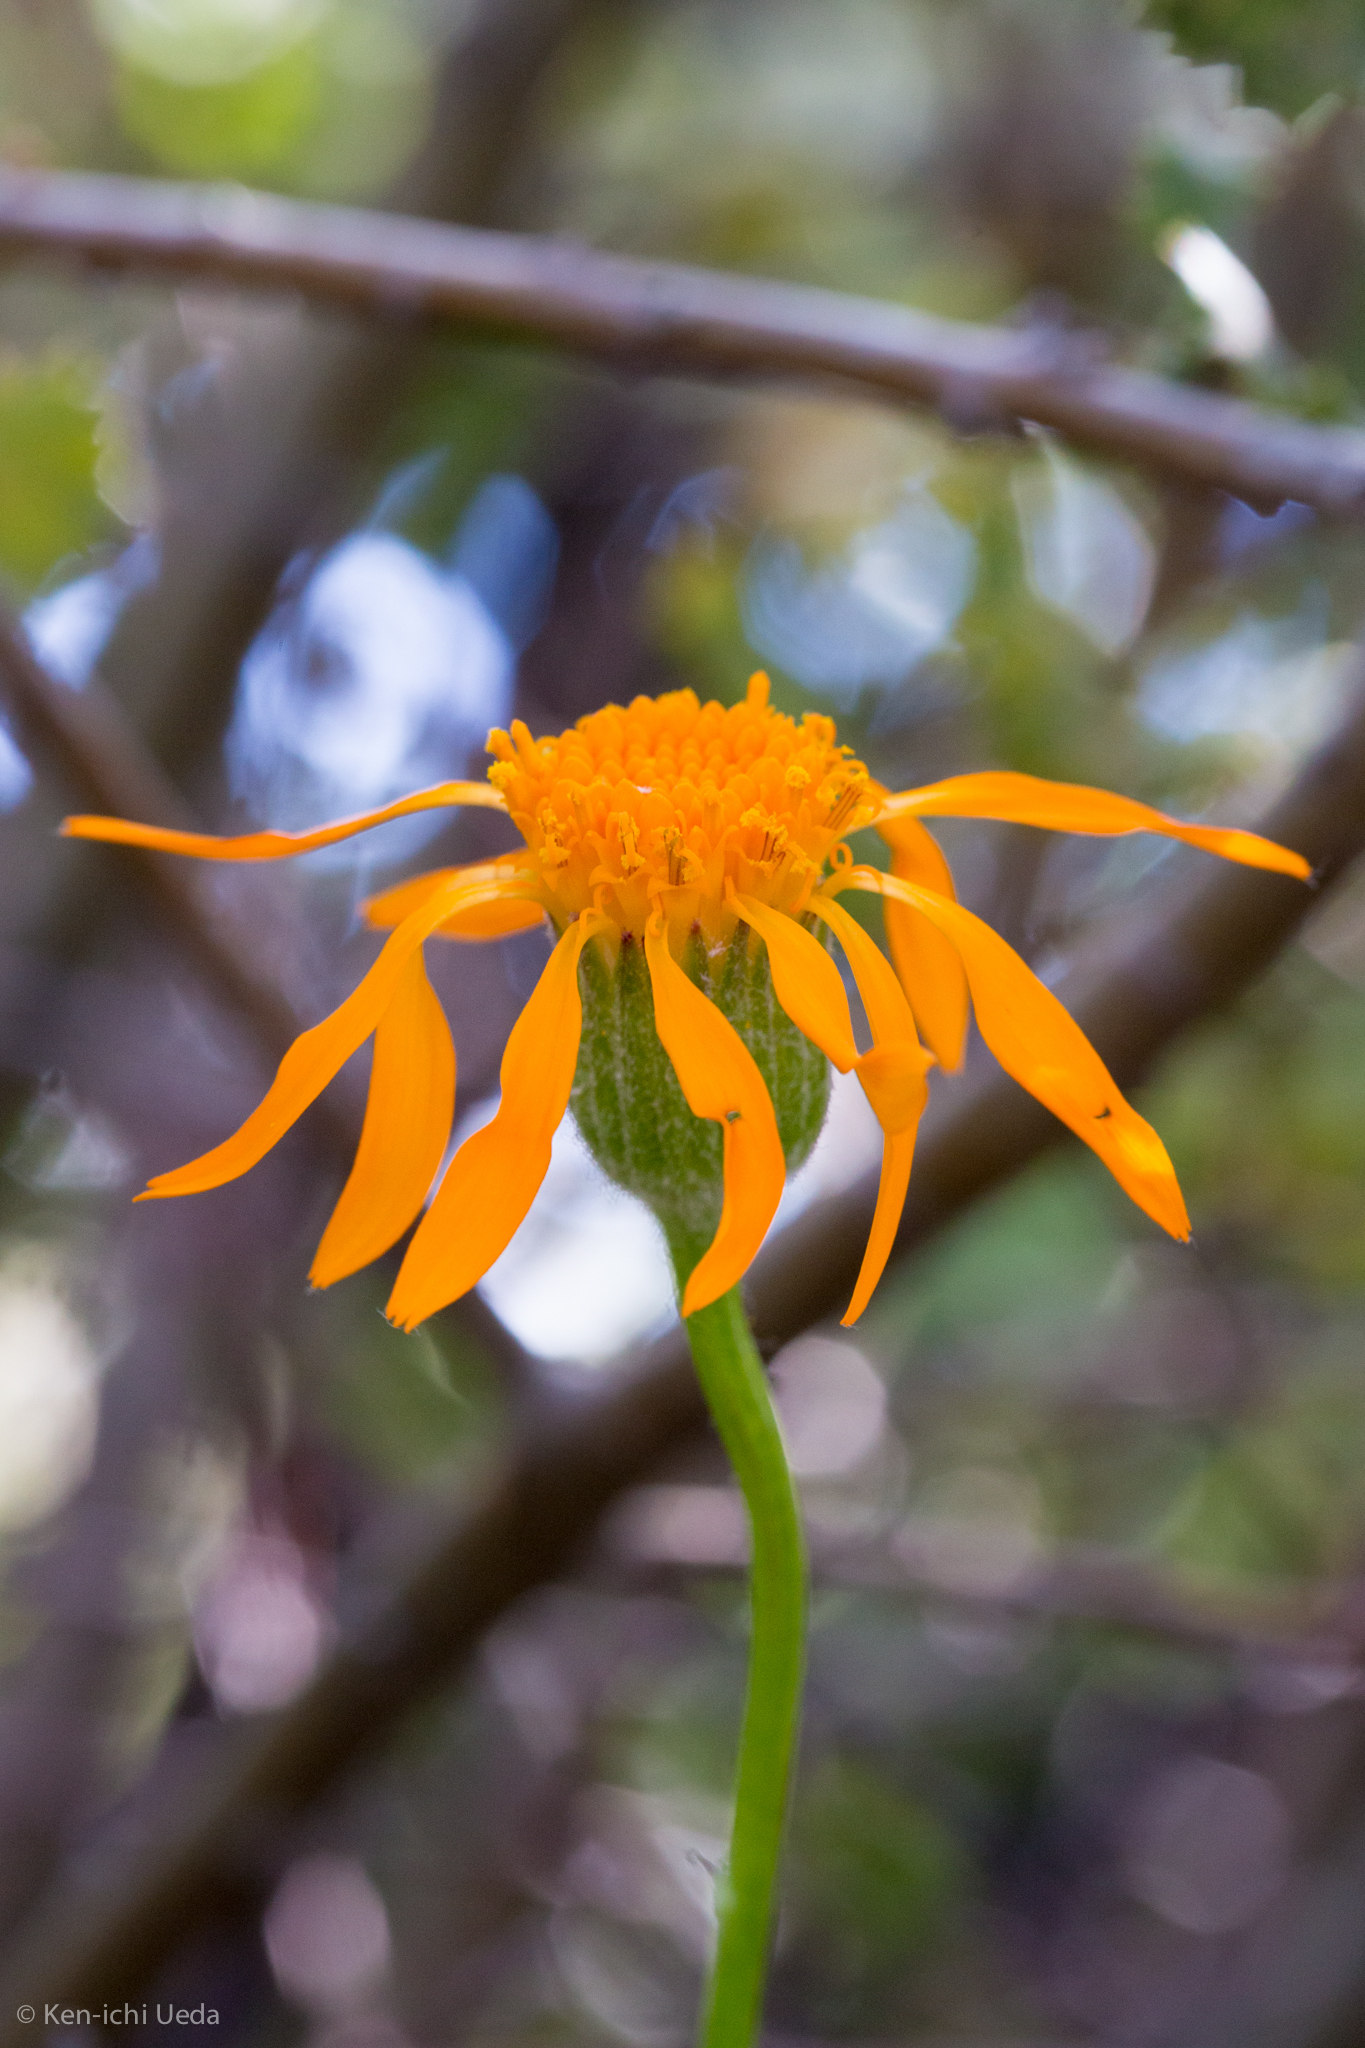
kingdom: Plantae
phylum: Tracheophyta
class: Magnoliopsida
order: Asterales
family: Asteraceae
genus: Packera
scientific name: Packera greenei
